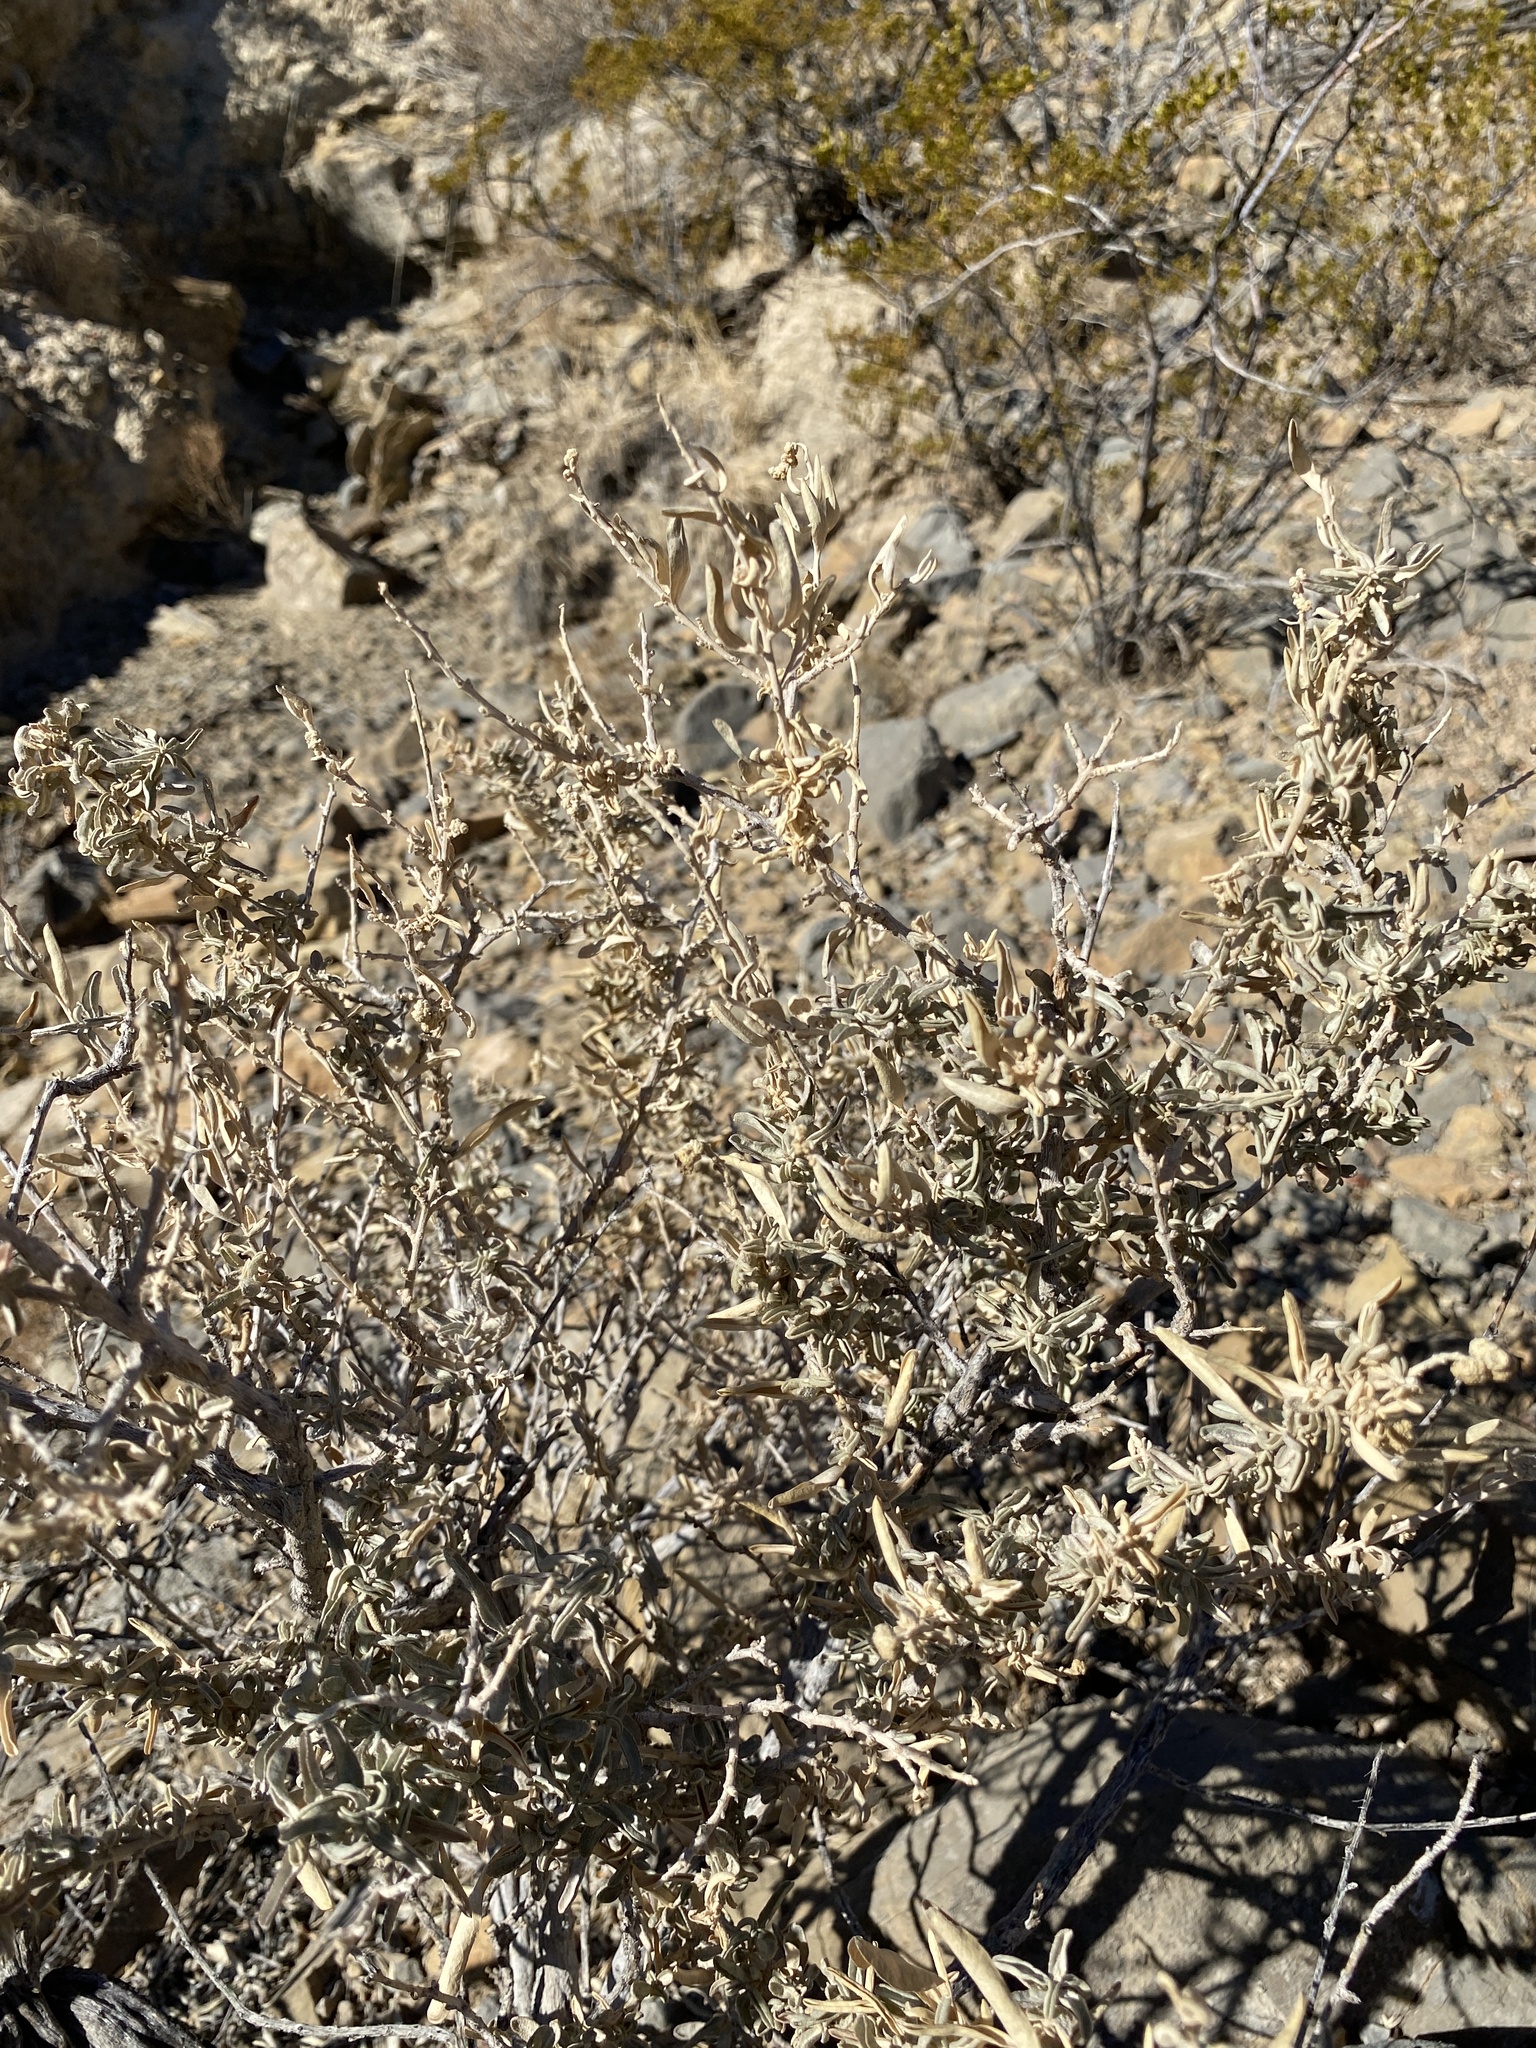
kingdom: Plantae
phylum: Tracheophyta
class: Magnoliopsida
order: Caryophyllales
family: Amaranthaceae
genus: Atriplex
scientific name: Atriplex canescens
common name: Four-wing saltbush
